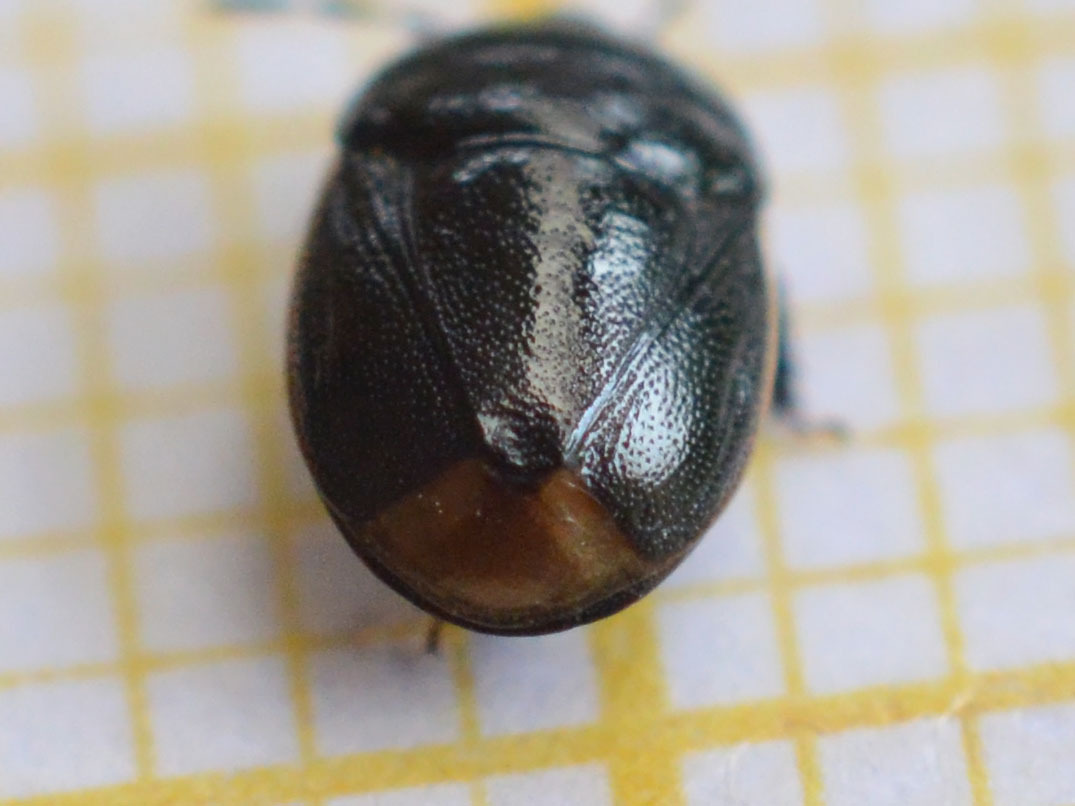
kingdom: Animalia
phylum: Arthropoda
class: Insecta
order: Hemiptera
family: Cydnidae
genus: Legnotus
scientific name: Legnotus limbosus
